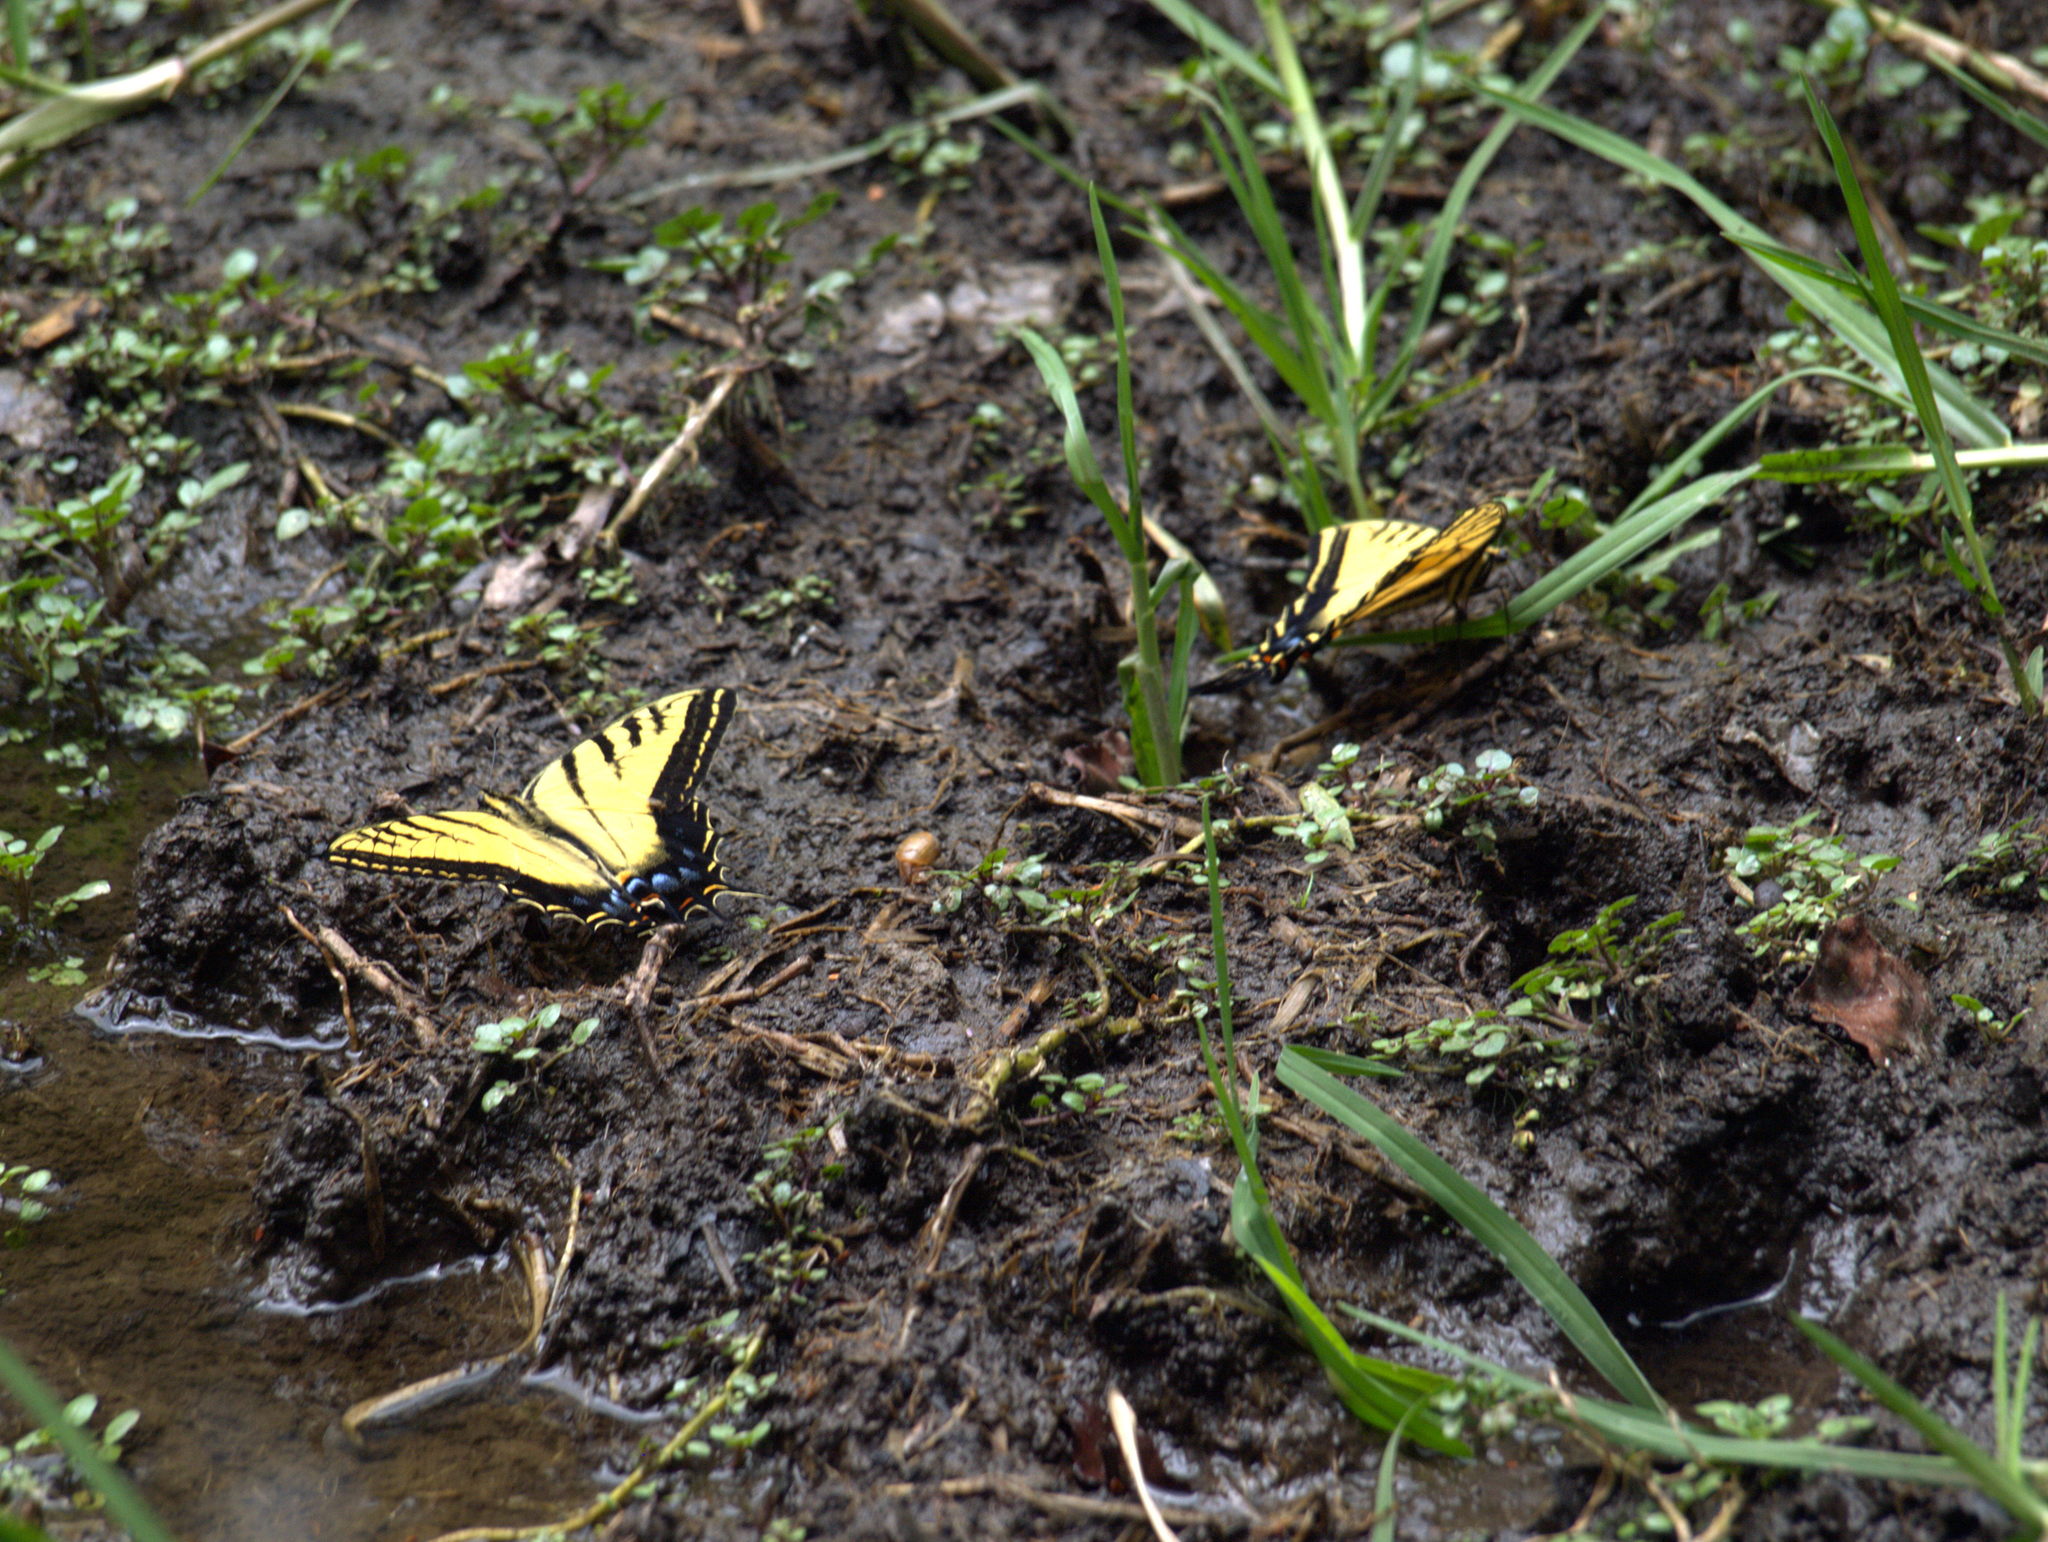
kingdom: Animalia
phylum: Arthropoda
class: Insecta
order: Lepidoptera
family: Papilionidae
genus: Papilio
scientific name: Papilio multicaudata
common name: Two-tailed tiger swallowtail
